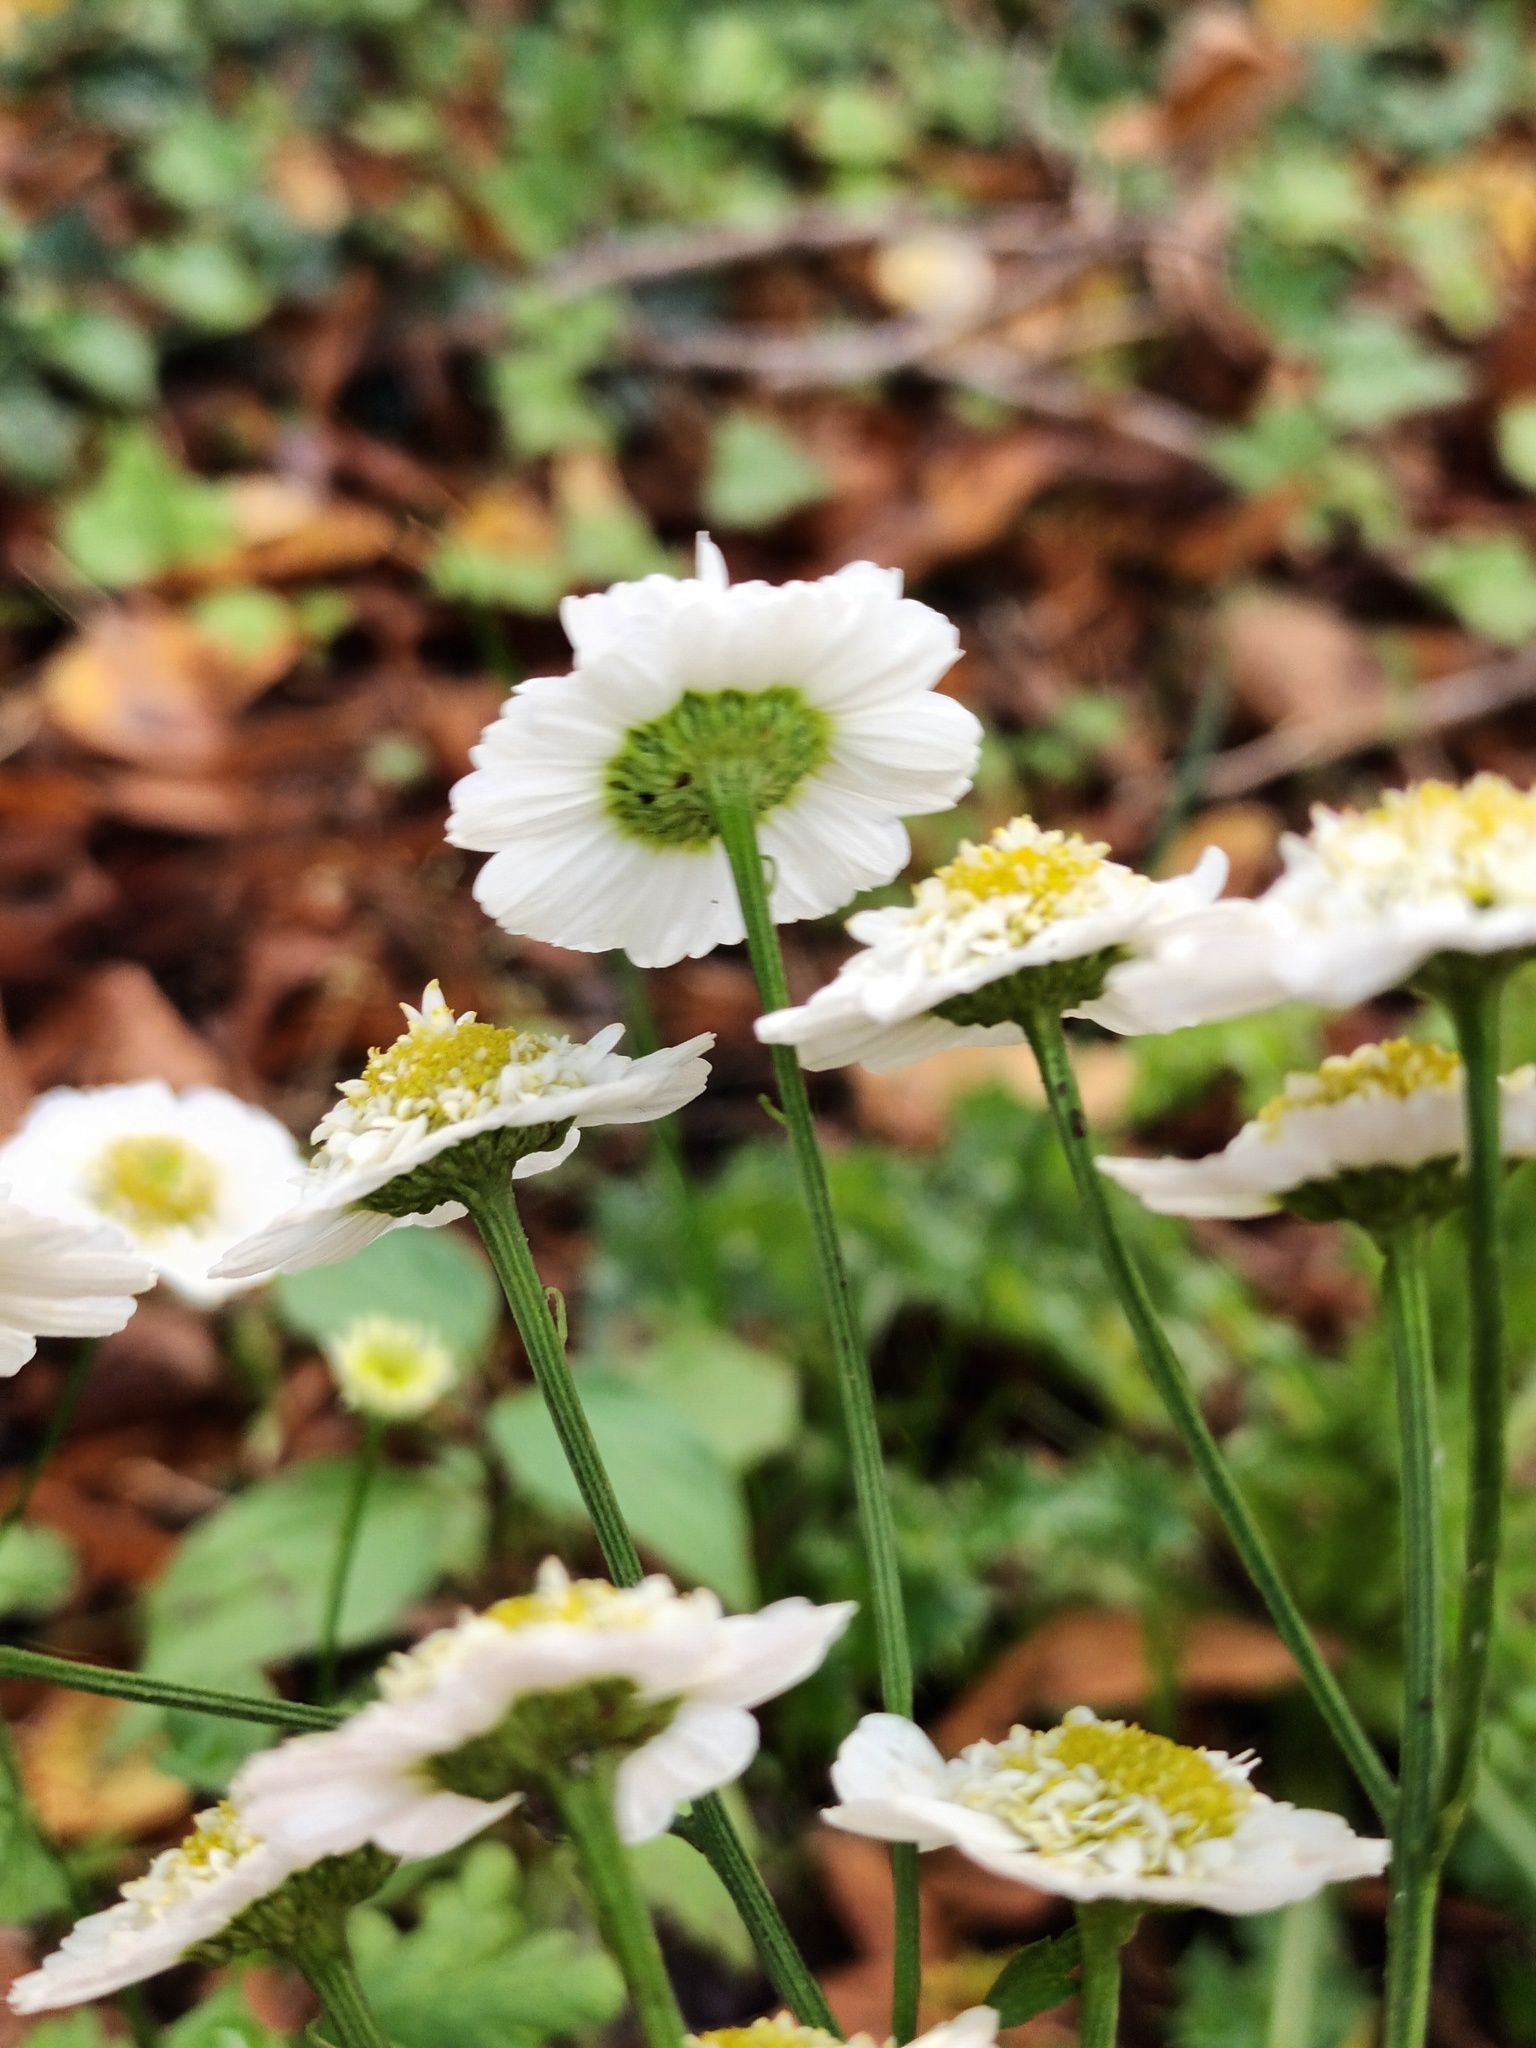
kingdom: Plantae
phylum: Tracheophyta
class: Magnoliopsida
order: Asterales
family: Asteraceae
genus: Tanacetum
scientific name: Tanacetum parthenium
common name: Feverfew
